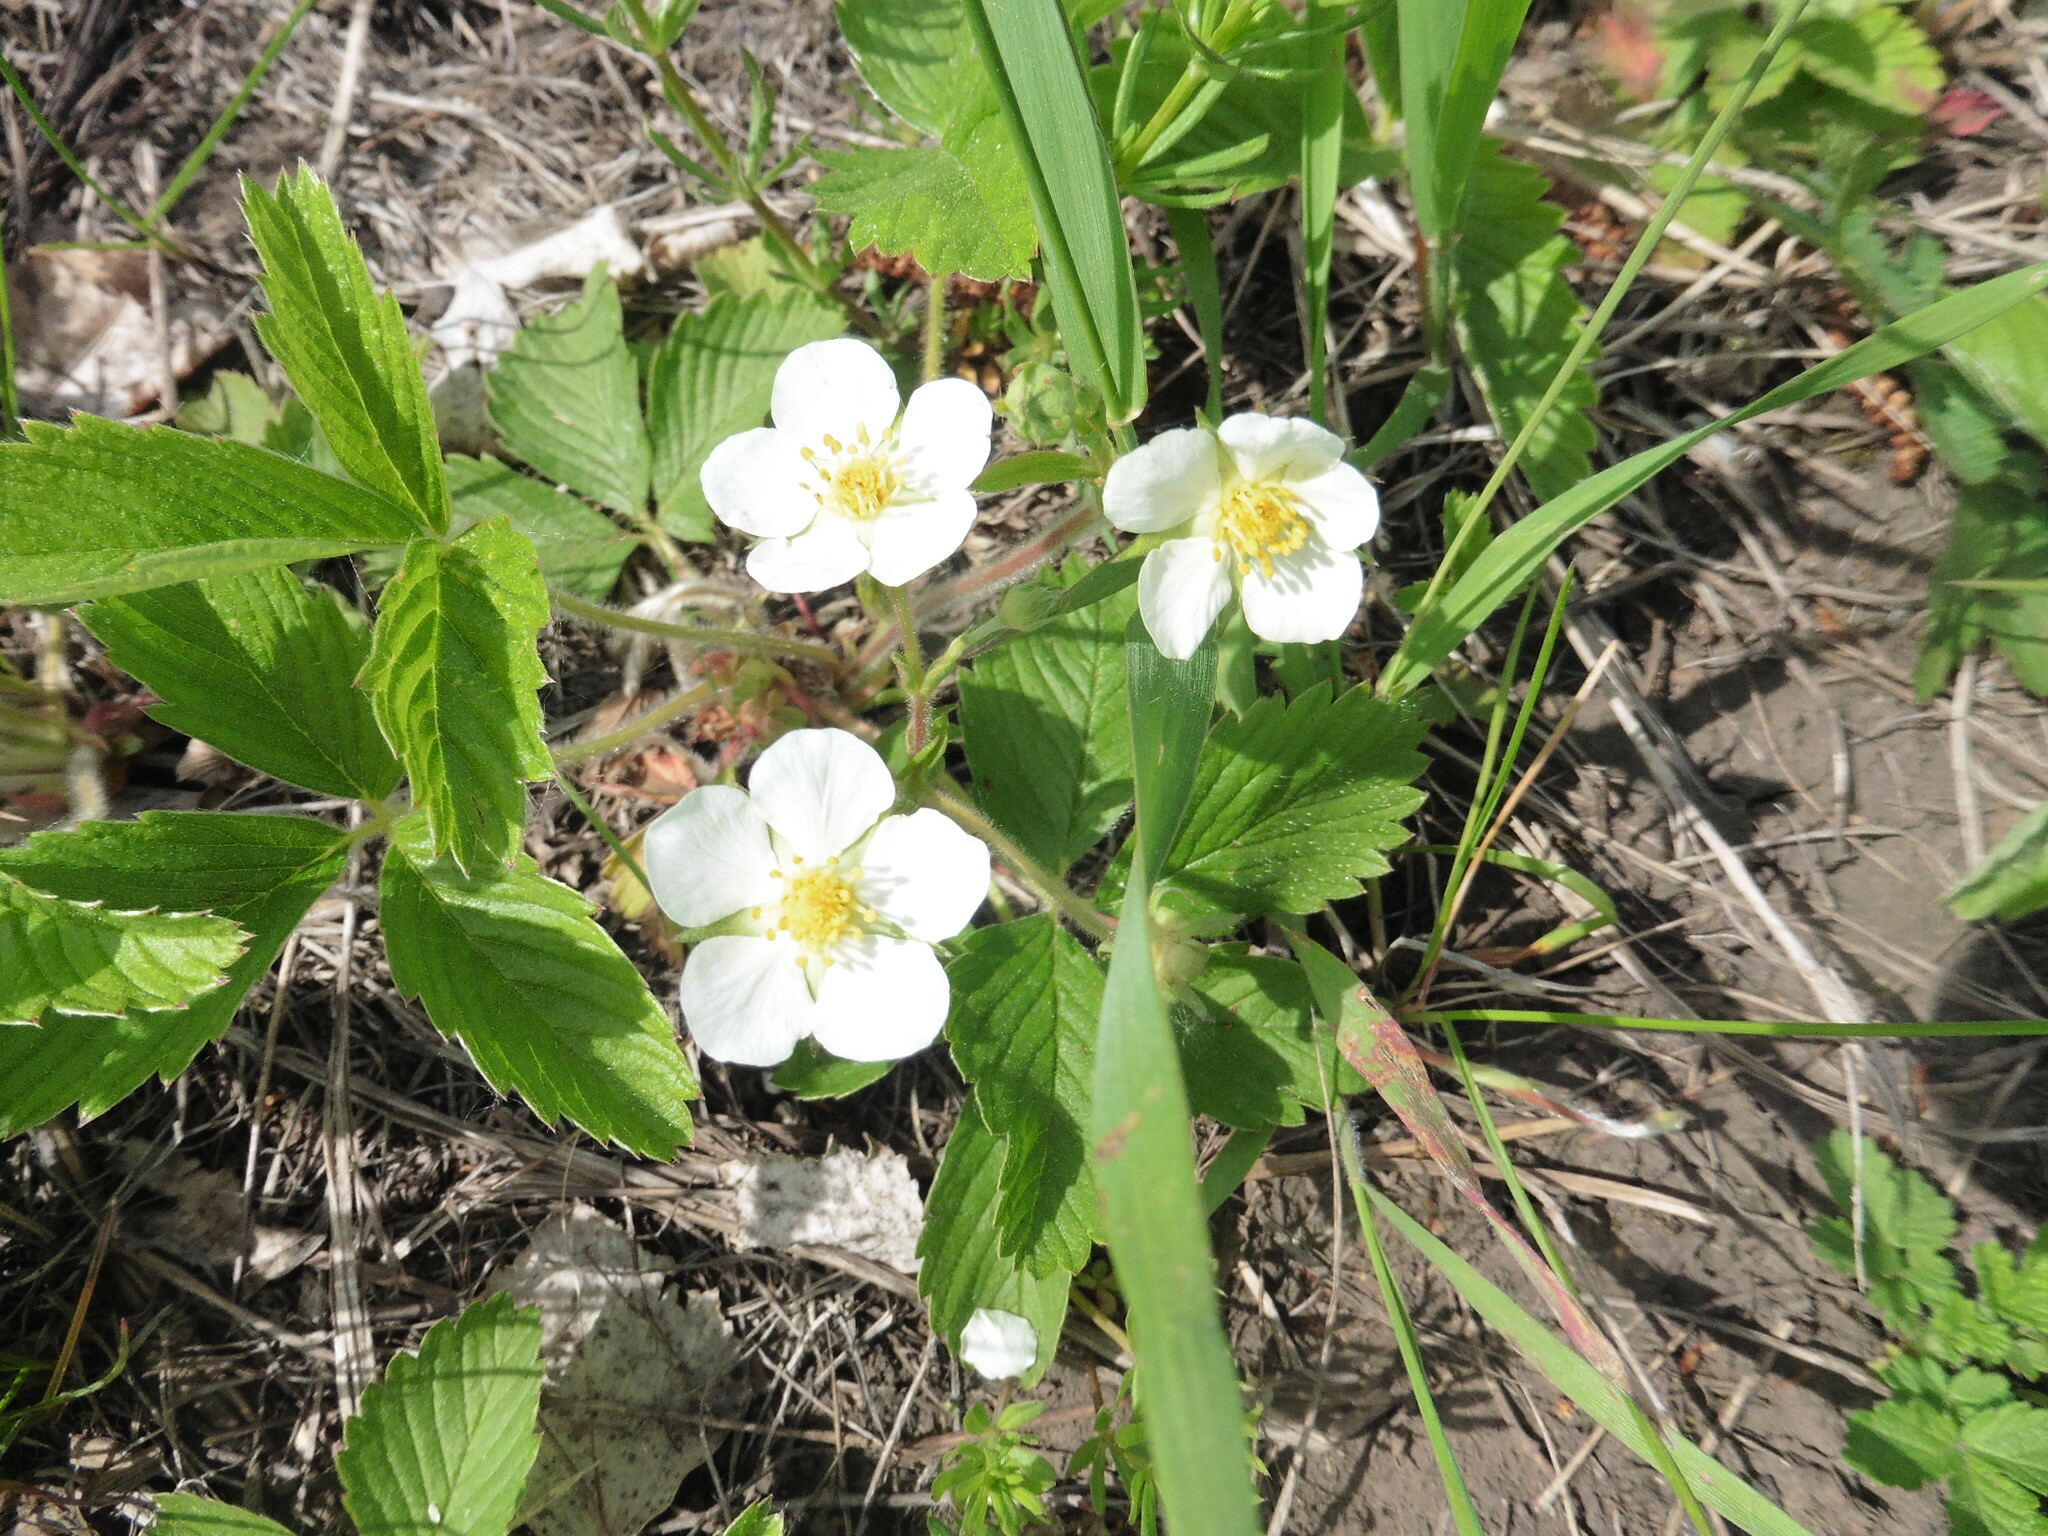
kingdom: Plantae
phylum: Tracheophyta
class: Magnoliopsida
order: Rosales
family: Rosaceae
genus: Fragaria
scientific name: Fragaria viridis
